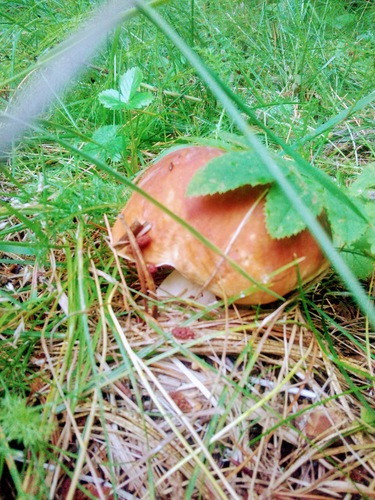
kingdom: Fungi
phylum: Basidiomycota
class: Agaricomycetes
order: Boletales
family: Boletaceae
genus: Boletus
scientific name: Boletus edulis
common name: Cep
